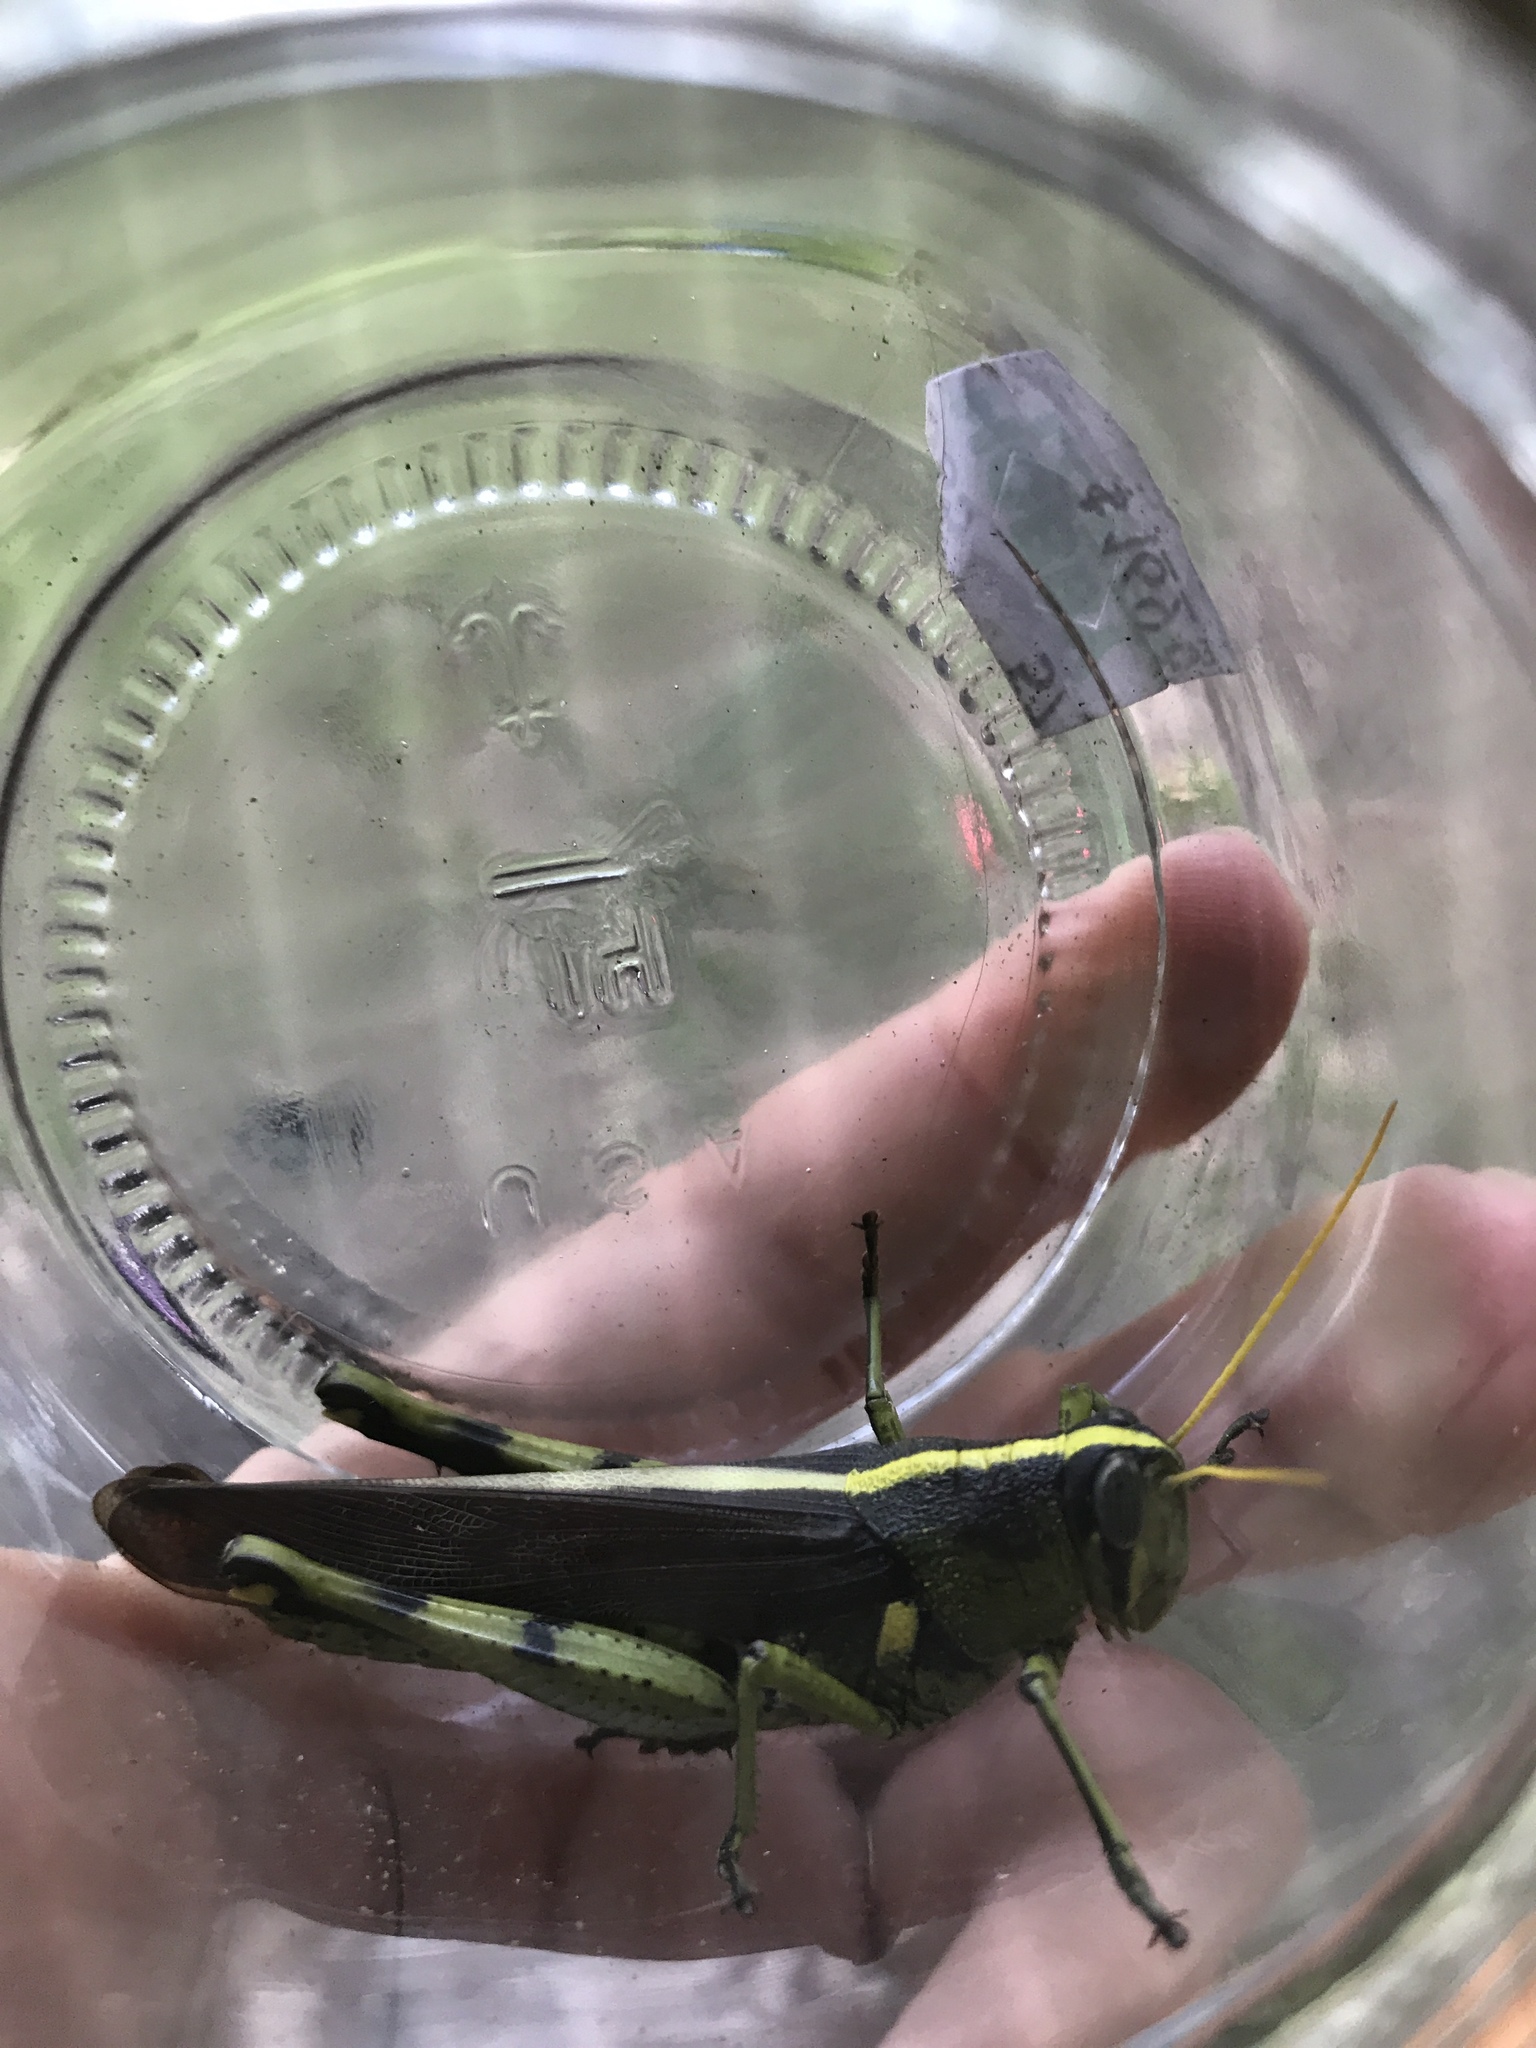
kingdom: Animalia
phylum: Arthropoda
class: Insecta
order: Orthoptera
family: Acrididae
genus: Schistocerca
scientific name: Schistocerca obscura
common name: Obscure bird grasshopper
